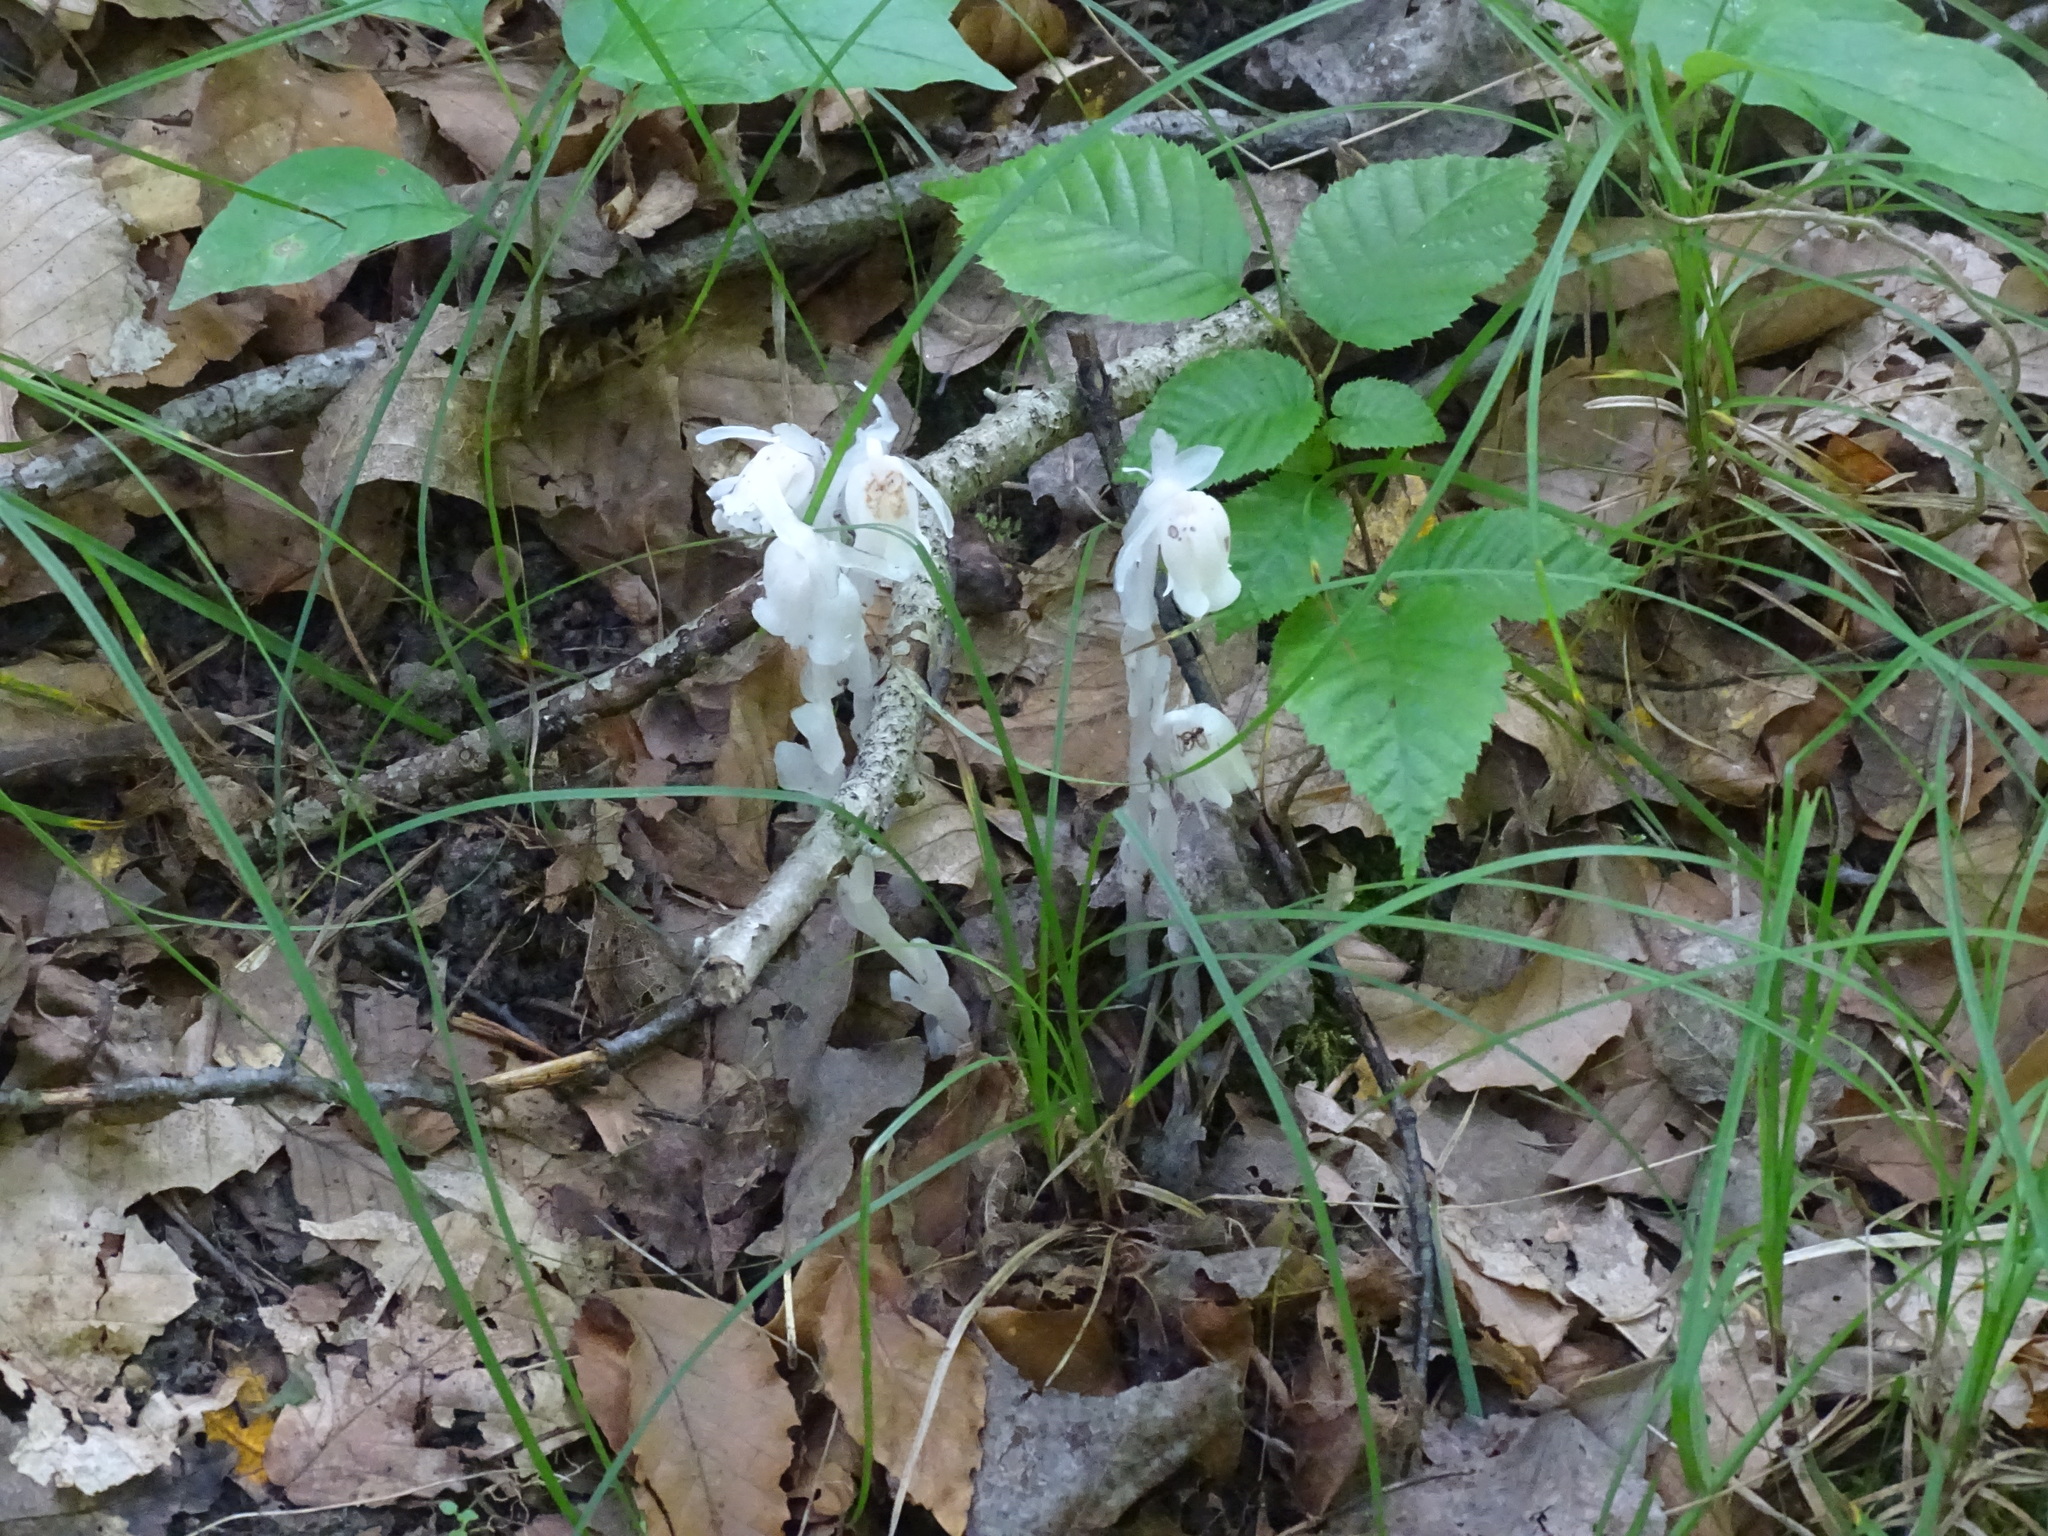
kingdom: Plantae
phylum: Tracheophyta
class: Magnoliopsida
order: Ericales
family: Ericaceae
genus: Monotropa
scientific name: Monotropa uniflora
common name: Convulsion root
